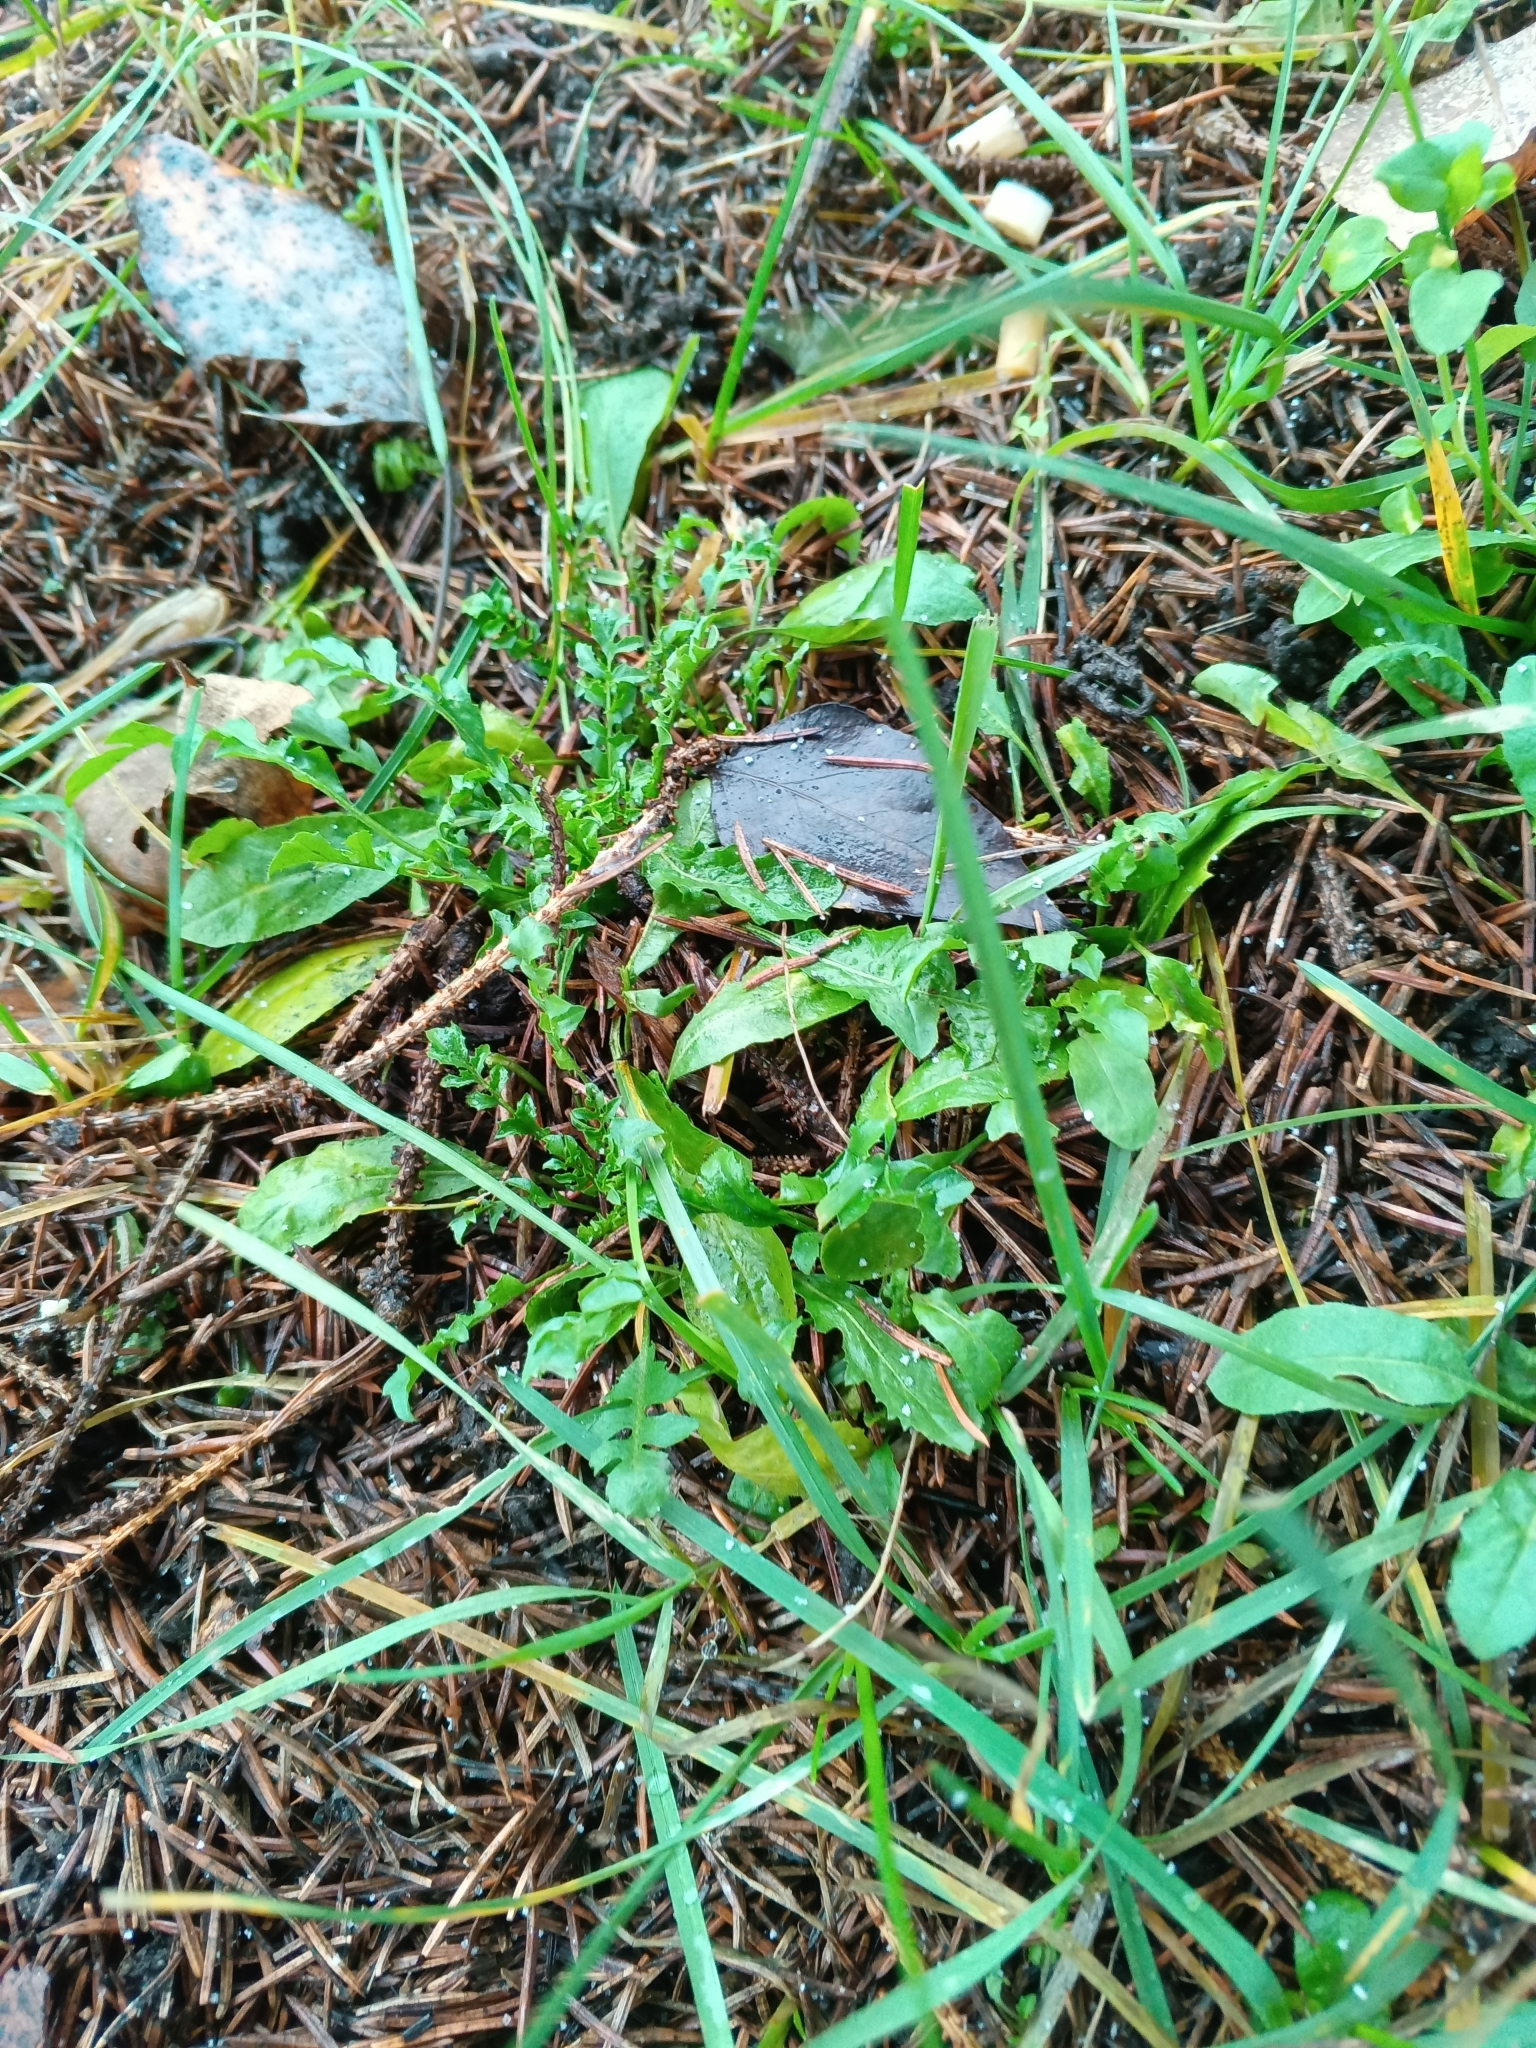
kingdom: Plantae
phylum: Tracheophyta
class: Magnoliopsida
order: Brassicales
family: Brassicaceae
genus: Capsella
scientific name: Capsella bursa-pastoris
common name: Shepherd's purse
